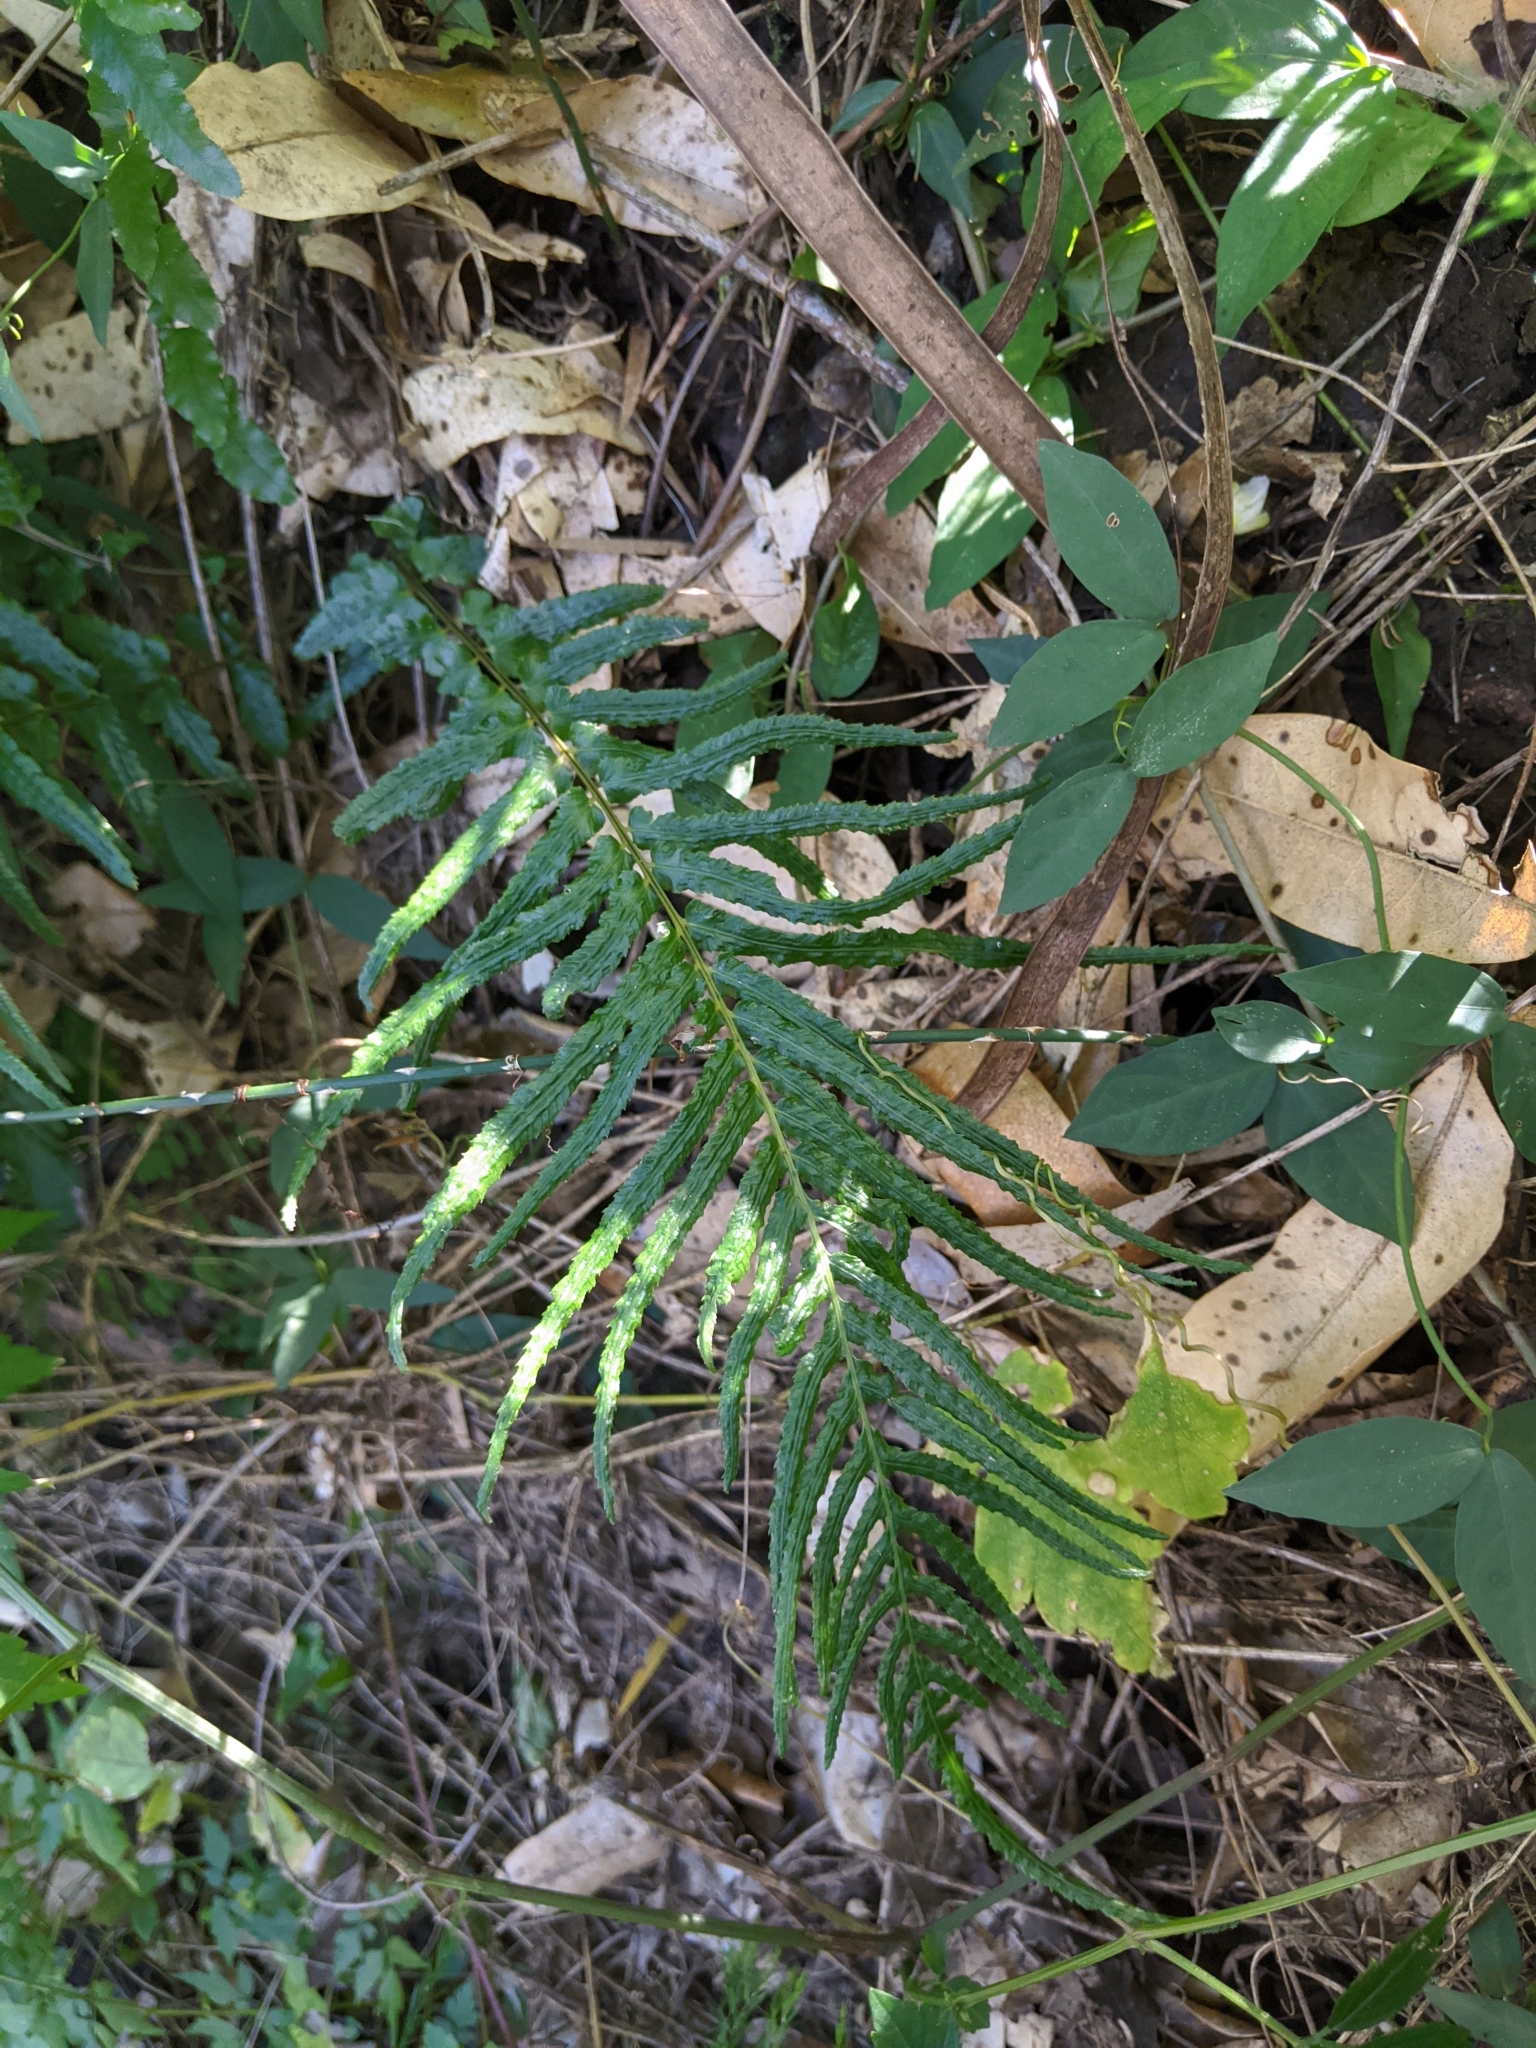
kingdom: Plantae
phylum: Tracheophyta
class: Polypodiopsida
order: Polypodiales
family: Blechnaceae
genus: Doodia
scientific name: Doodia caudata
